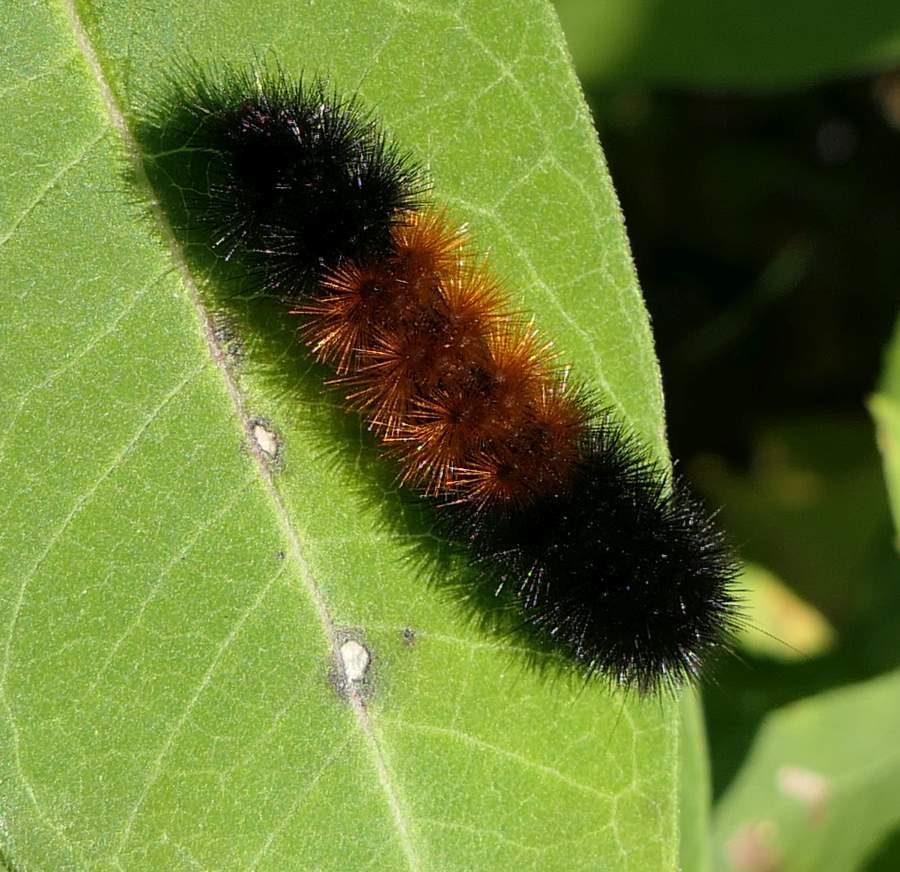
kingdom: Animalia
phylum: Arthropoda
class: Insecta
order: Lepidoptera
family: Erebidae
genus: Pyrrharctia
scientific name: Pyrrharctia isabella
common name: Isabella tiger moth
